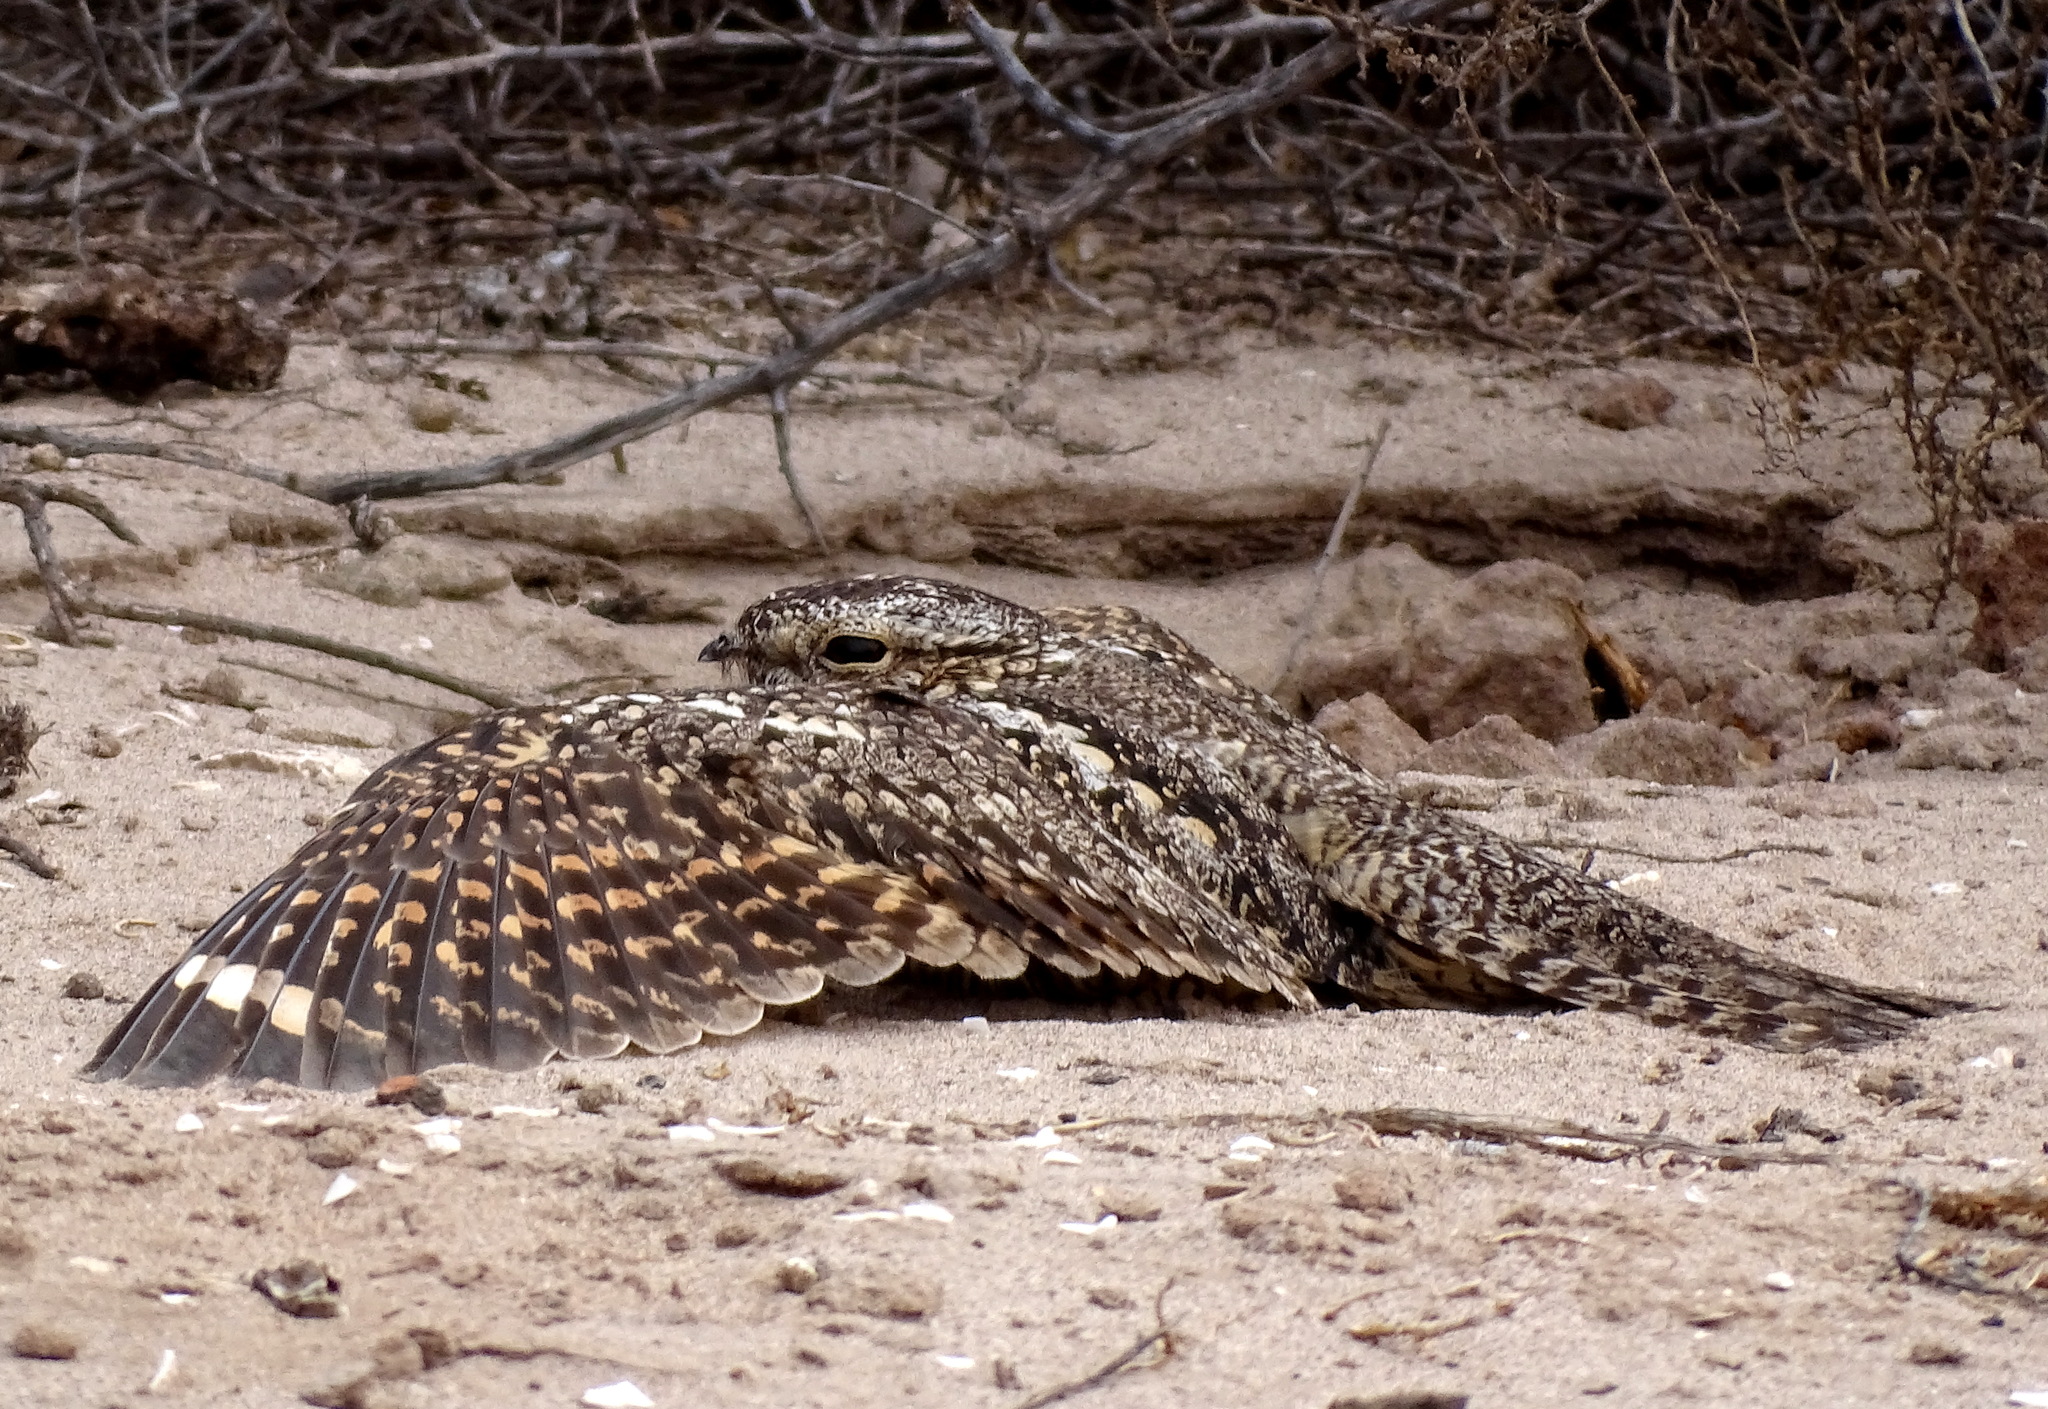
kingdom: Animalia
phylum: Chordata
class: Aves
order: Caprimulgiformes
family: Caprimulgidae
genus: Chordeiles
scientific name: Chordeiles acutipennis
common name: Lesser nighthawk
